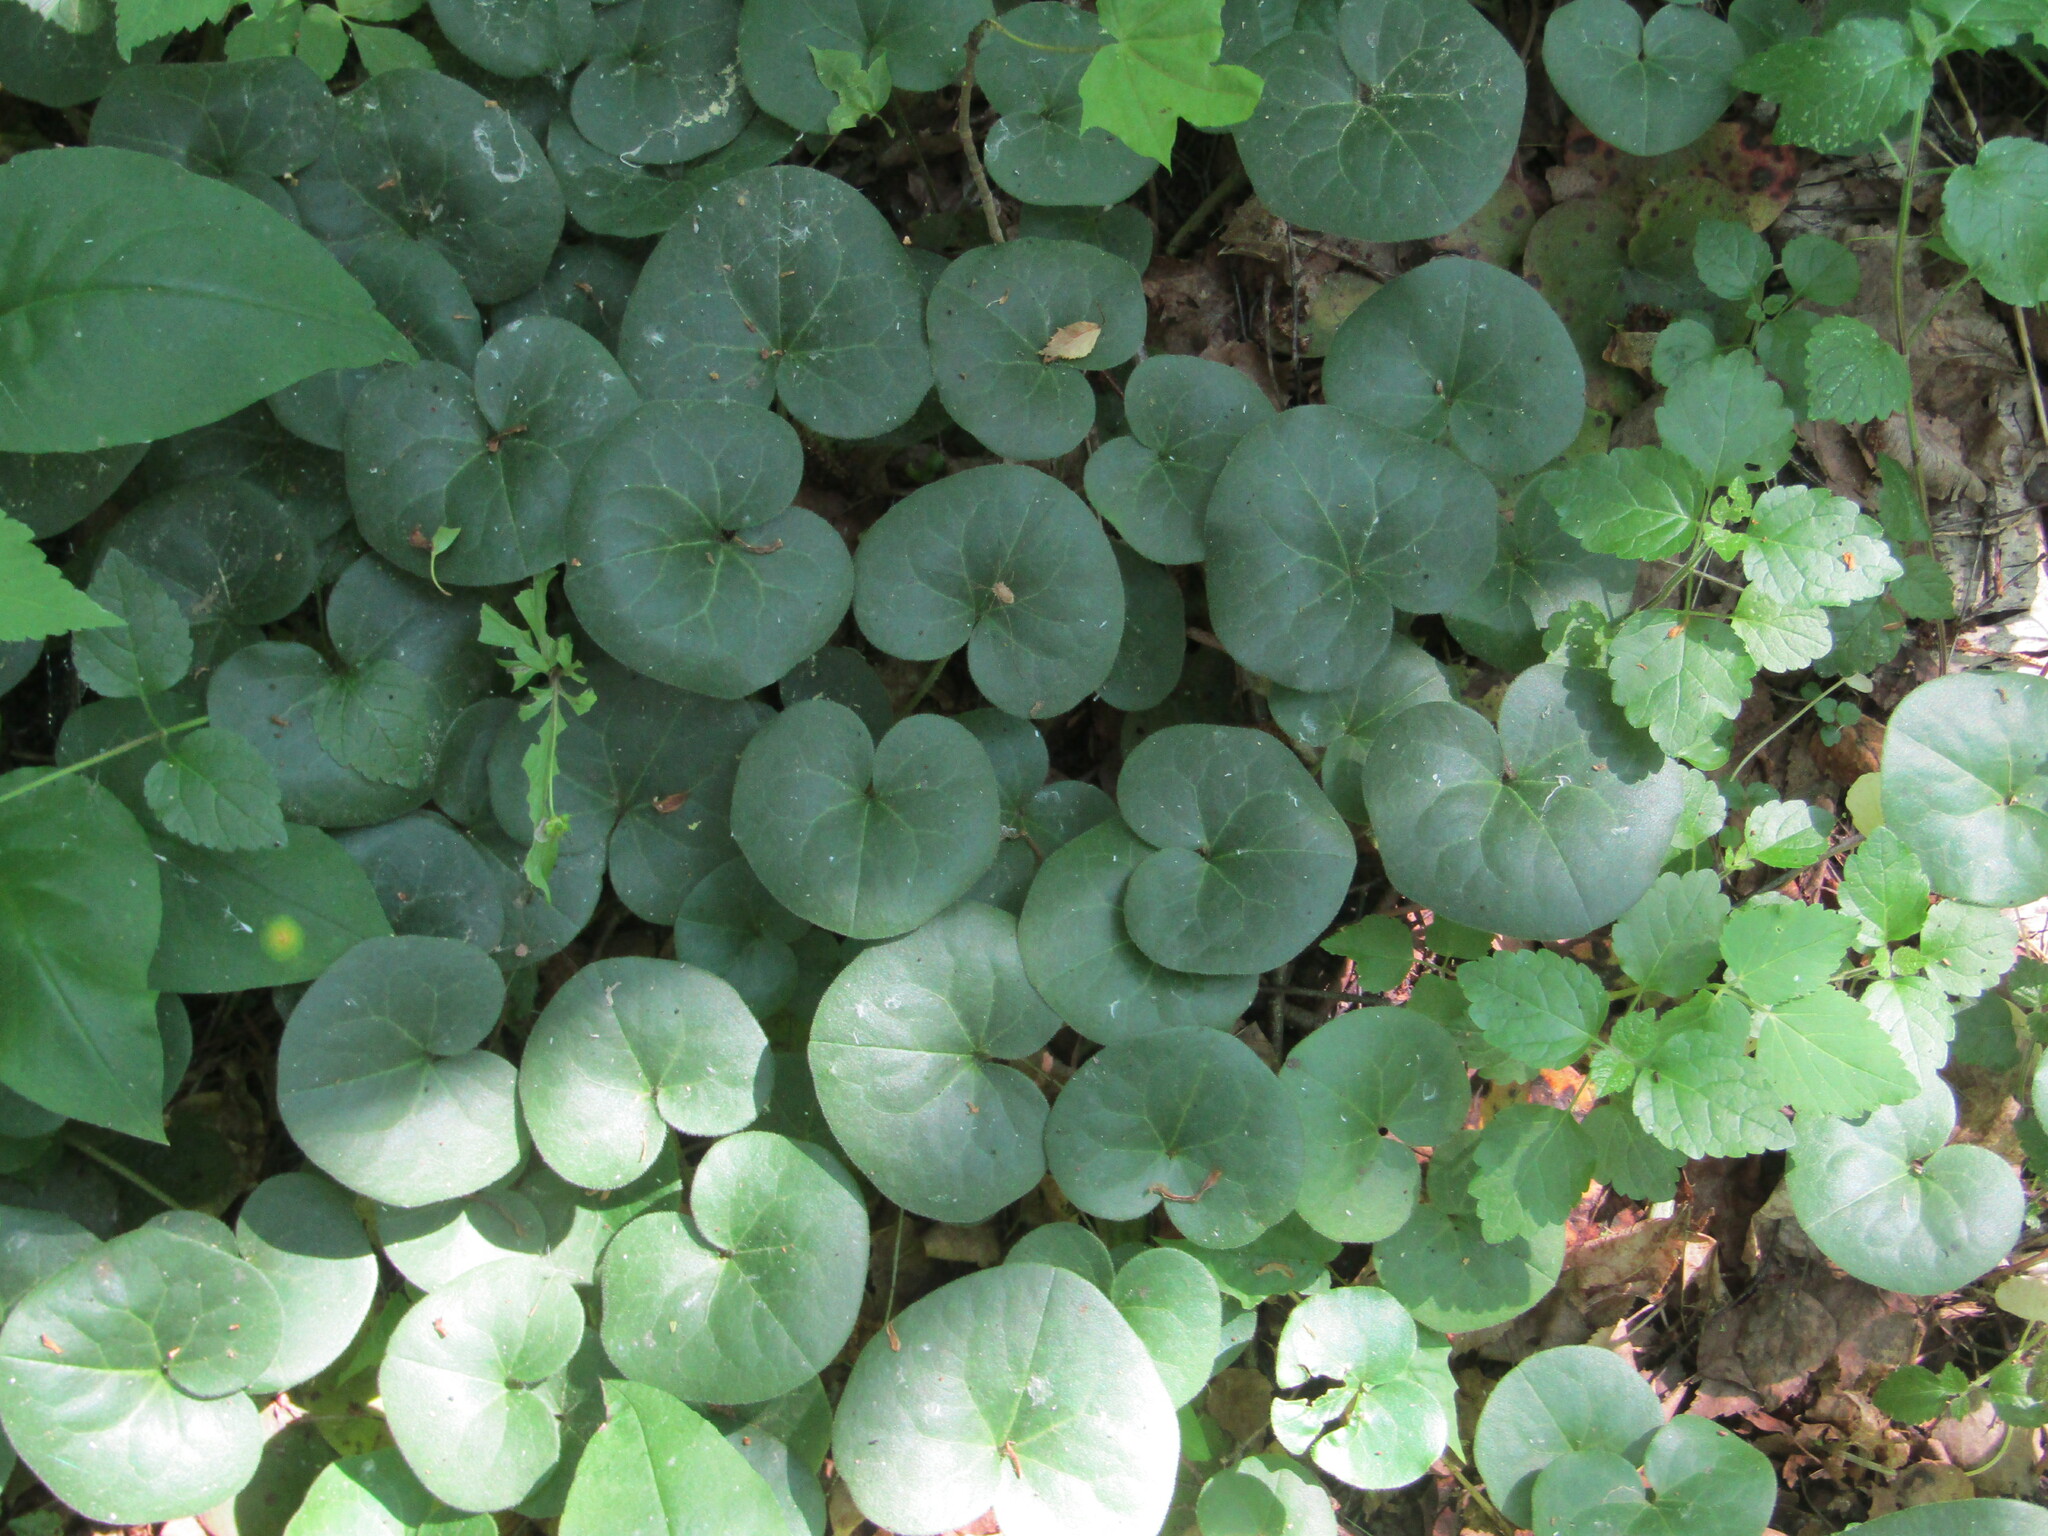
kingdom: Plantae
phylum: Tracheophyta
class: Magnoliopsida
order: Piperales
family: Aristolochiaceae
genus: Asarum
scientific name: Asarum europaeum
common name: Asarabacca
